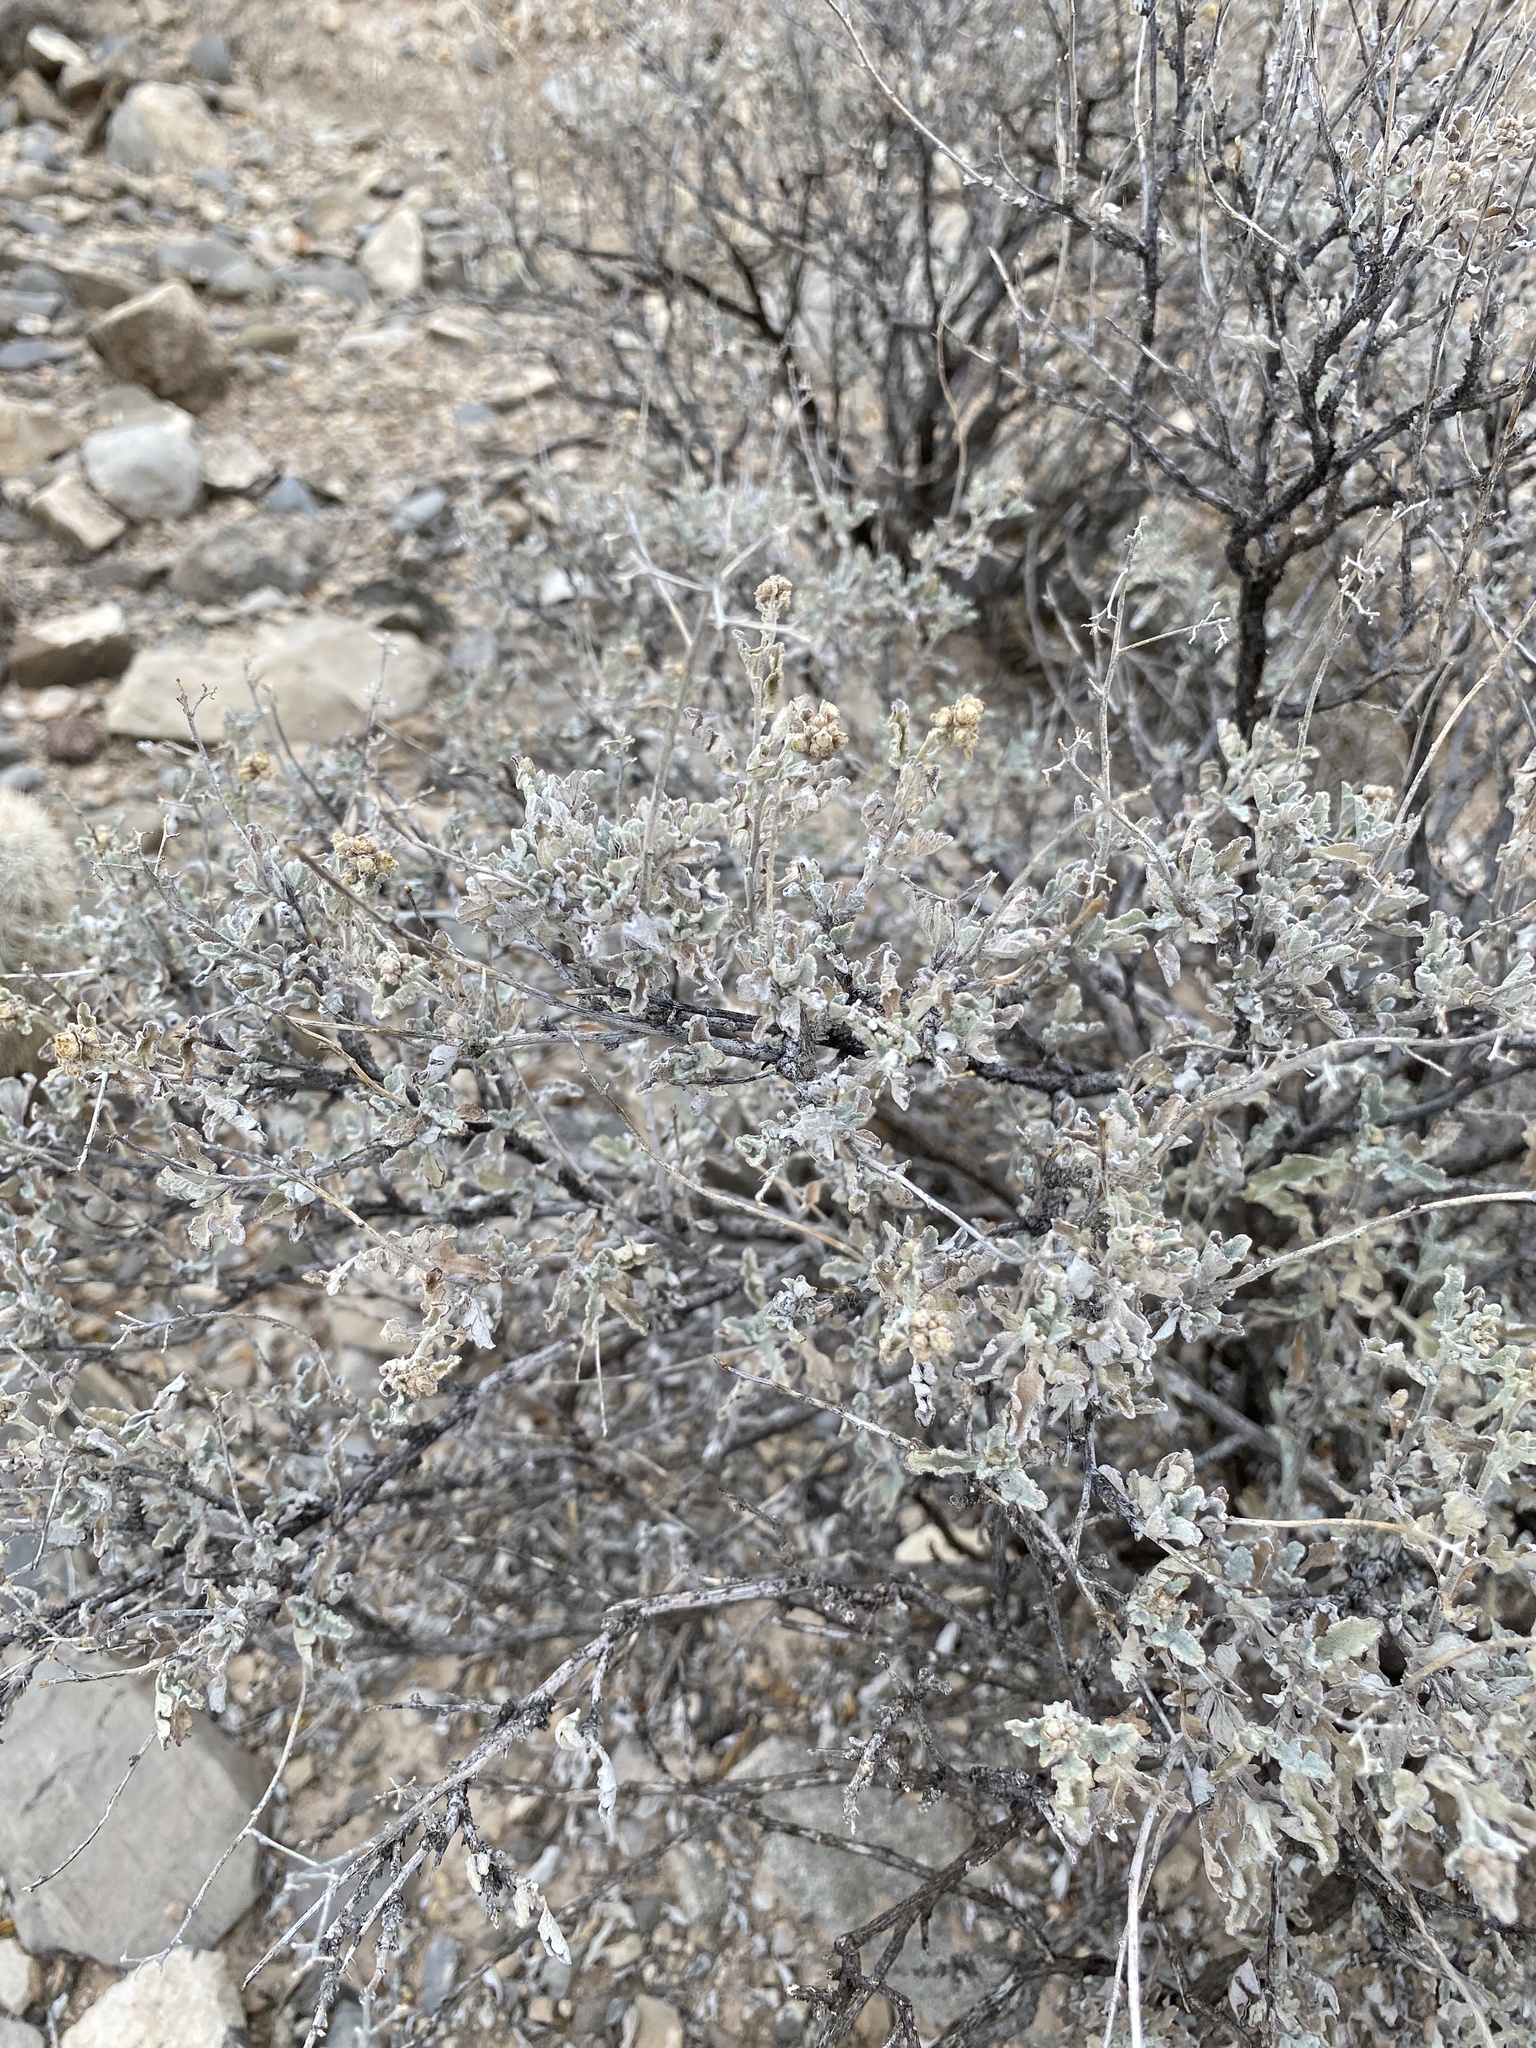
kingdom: Plantae
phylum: Tracheophyta
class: Magnoliopsida
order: Asterales
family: Asteraceae
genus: Parthenium
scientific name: Parthenium incanum
